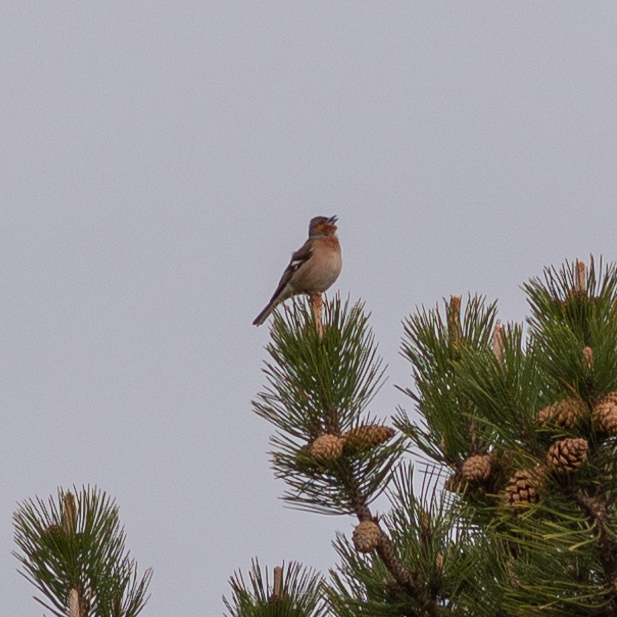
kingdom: Animalia
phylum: Chordata
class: Aves
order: Passeriformes
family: Fringillidae
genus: Fringilla
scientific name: Fringilla coelebs
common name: Common chaffinch
